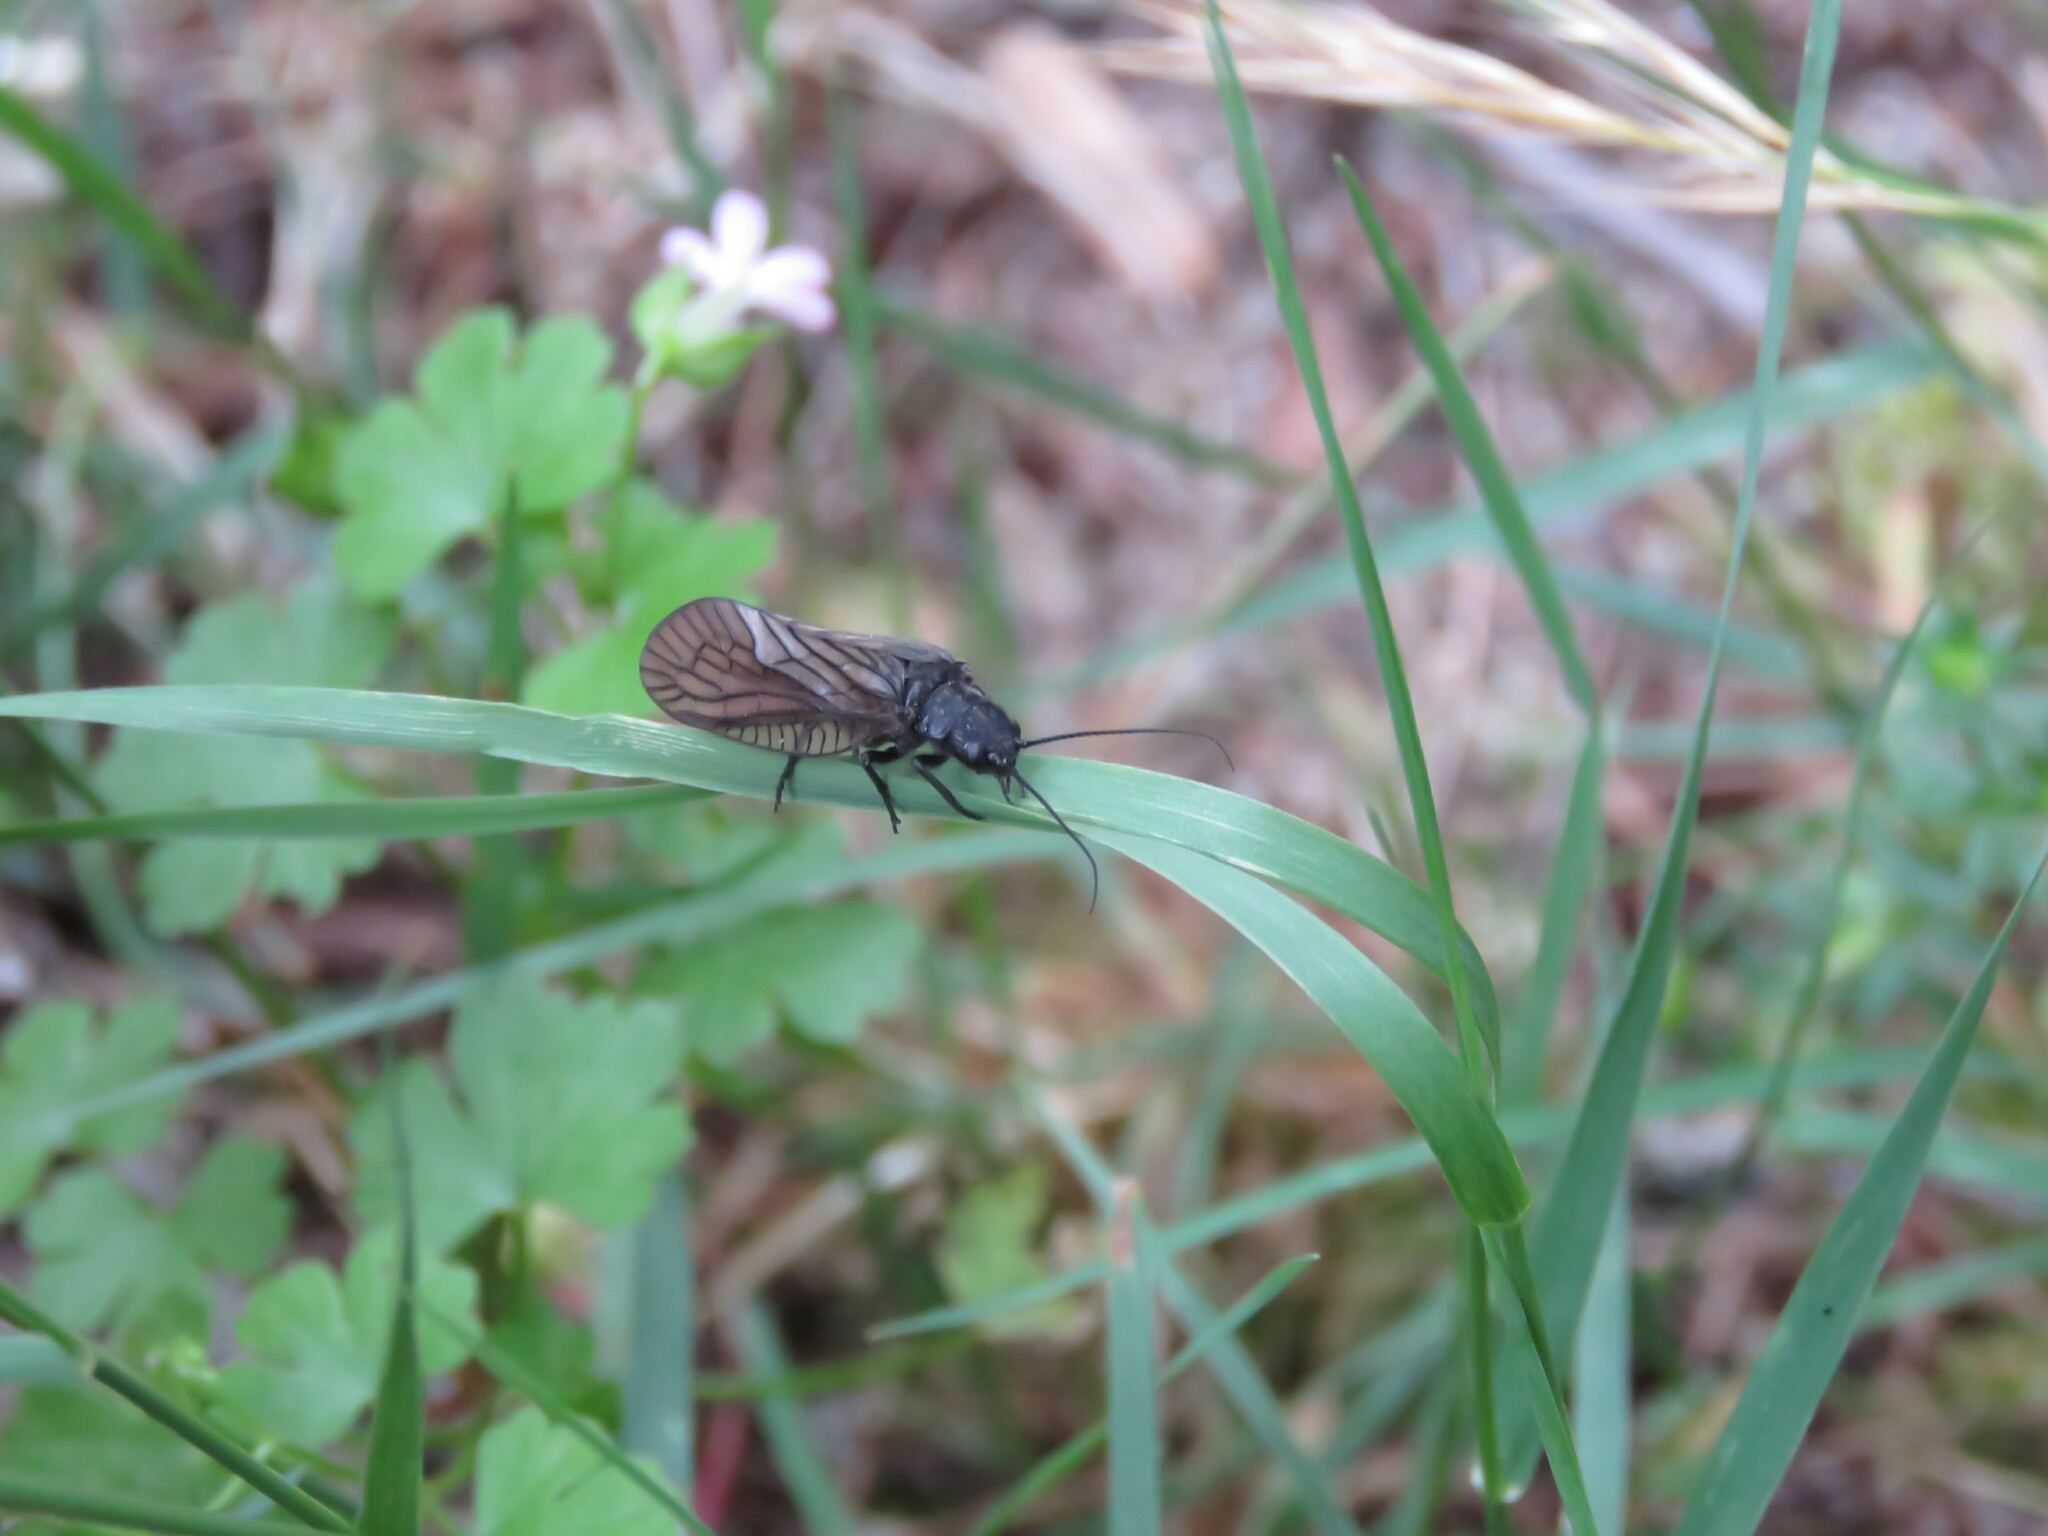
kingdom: Animalia
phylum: Arthropoda
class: Insecta
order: Megaloptera
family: Sialidae
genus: Sialis
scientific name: Sialis
